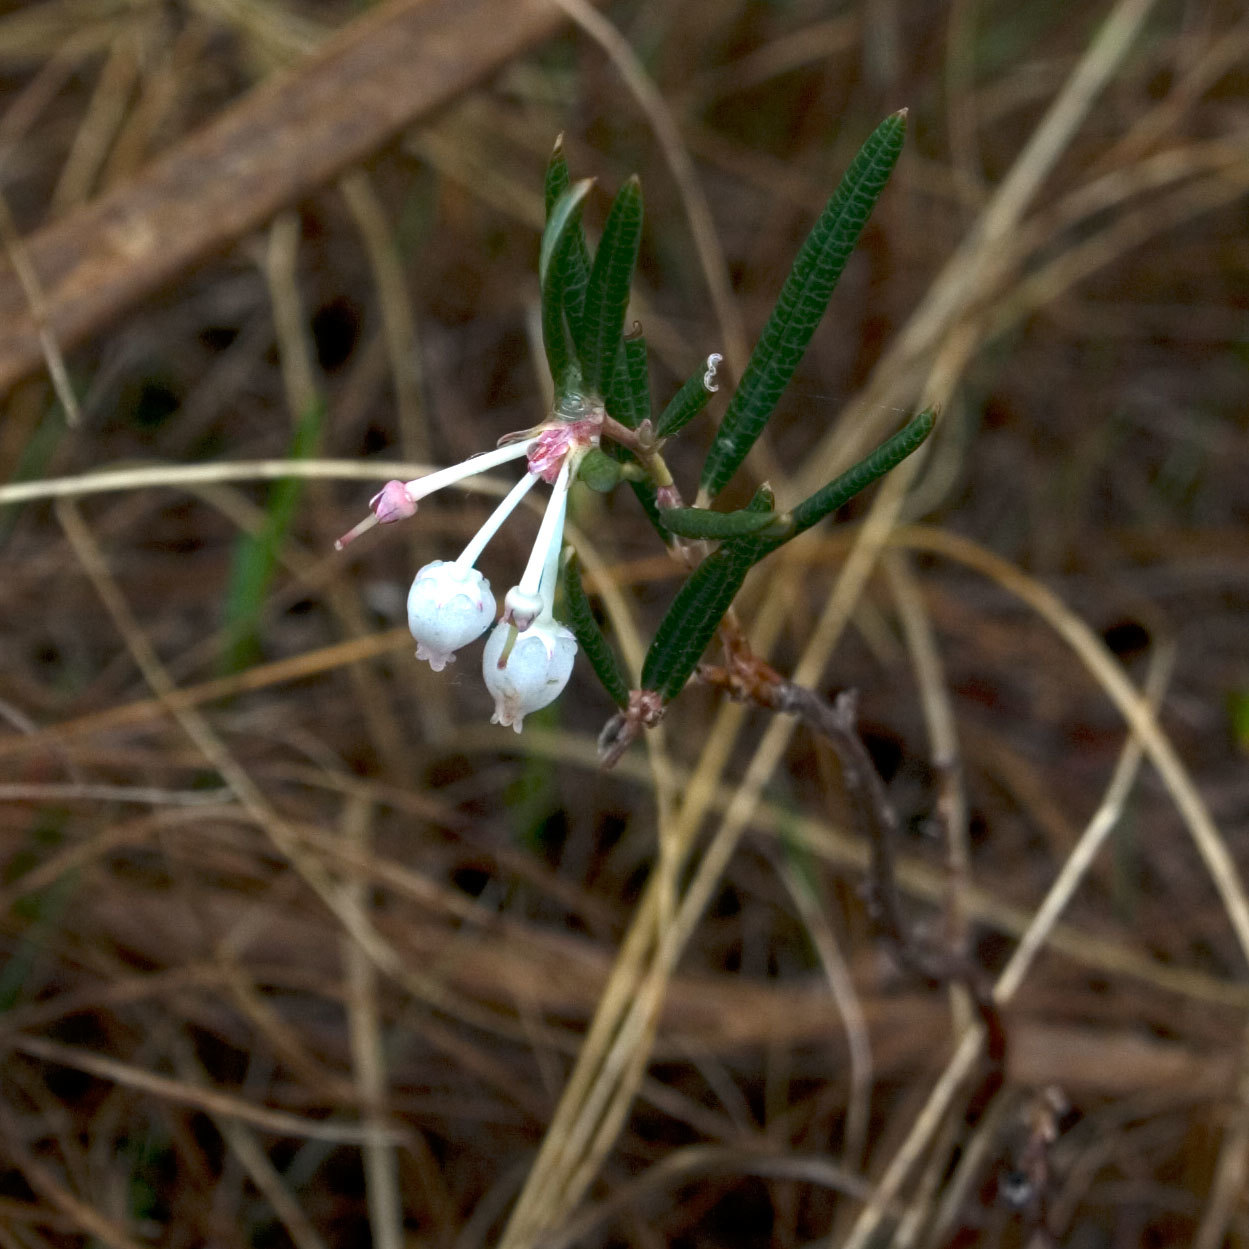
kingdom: Plantae
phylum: Tracheophyta
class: Magnoliopsida
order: Ericales
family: Ericaceae
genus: Andromeda
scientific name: Andromeda polifolia
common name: Bog-rosemary
